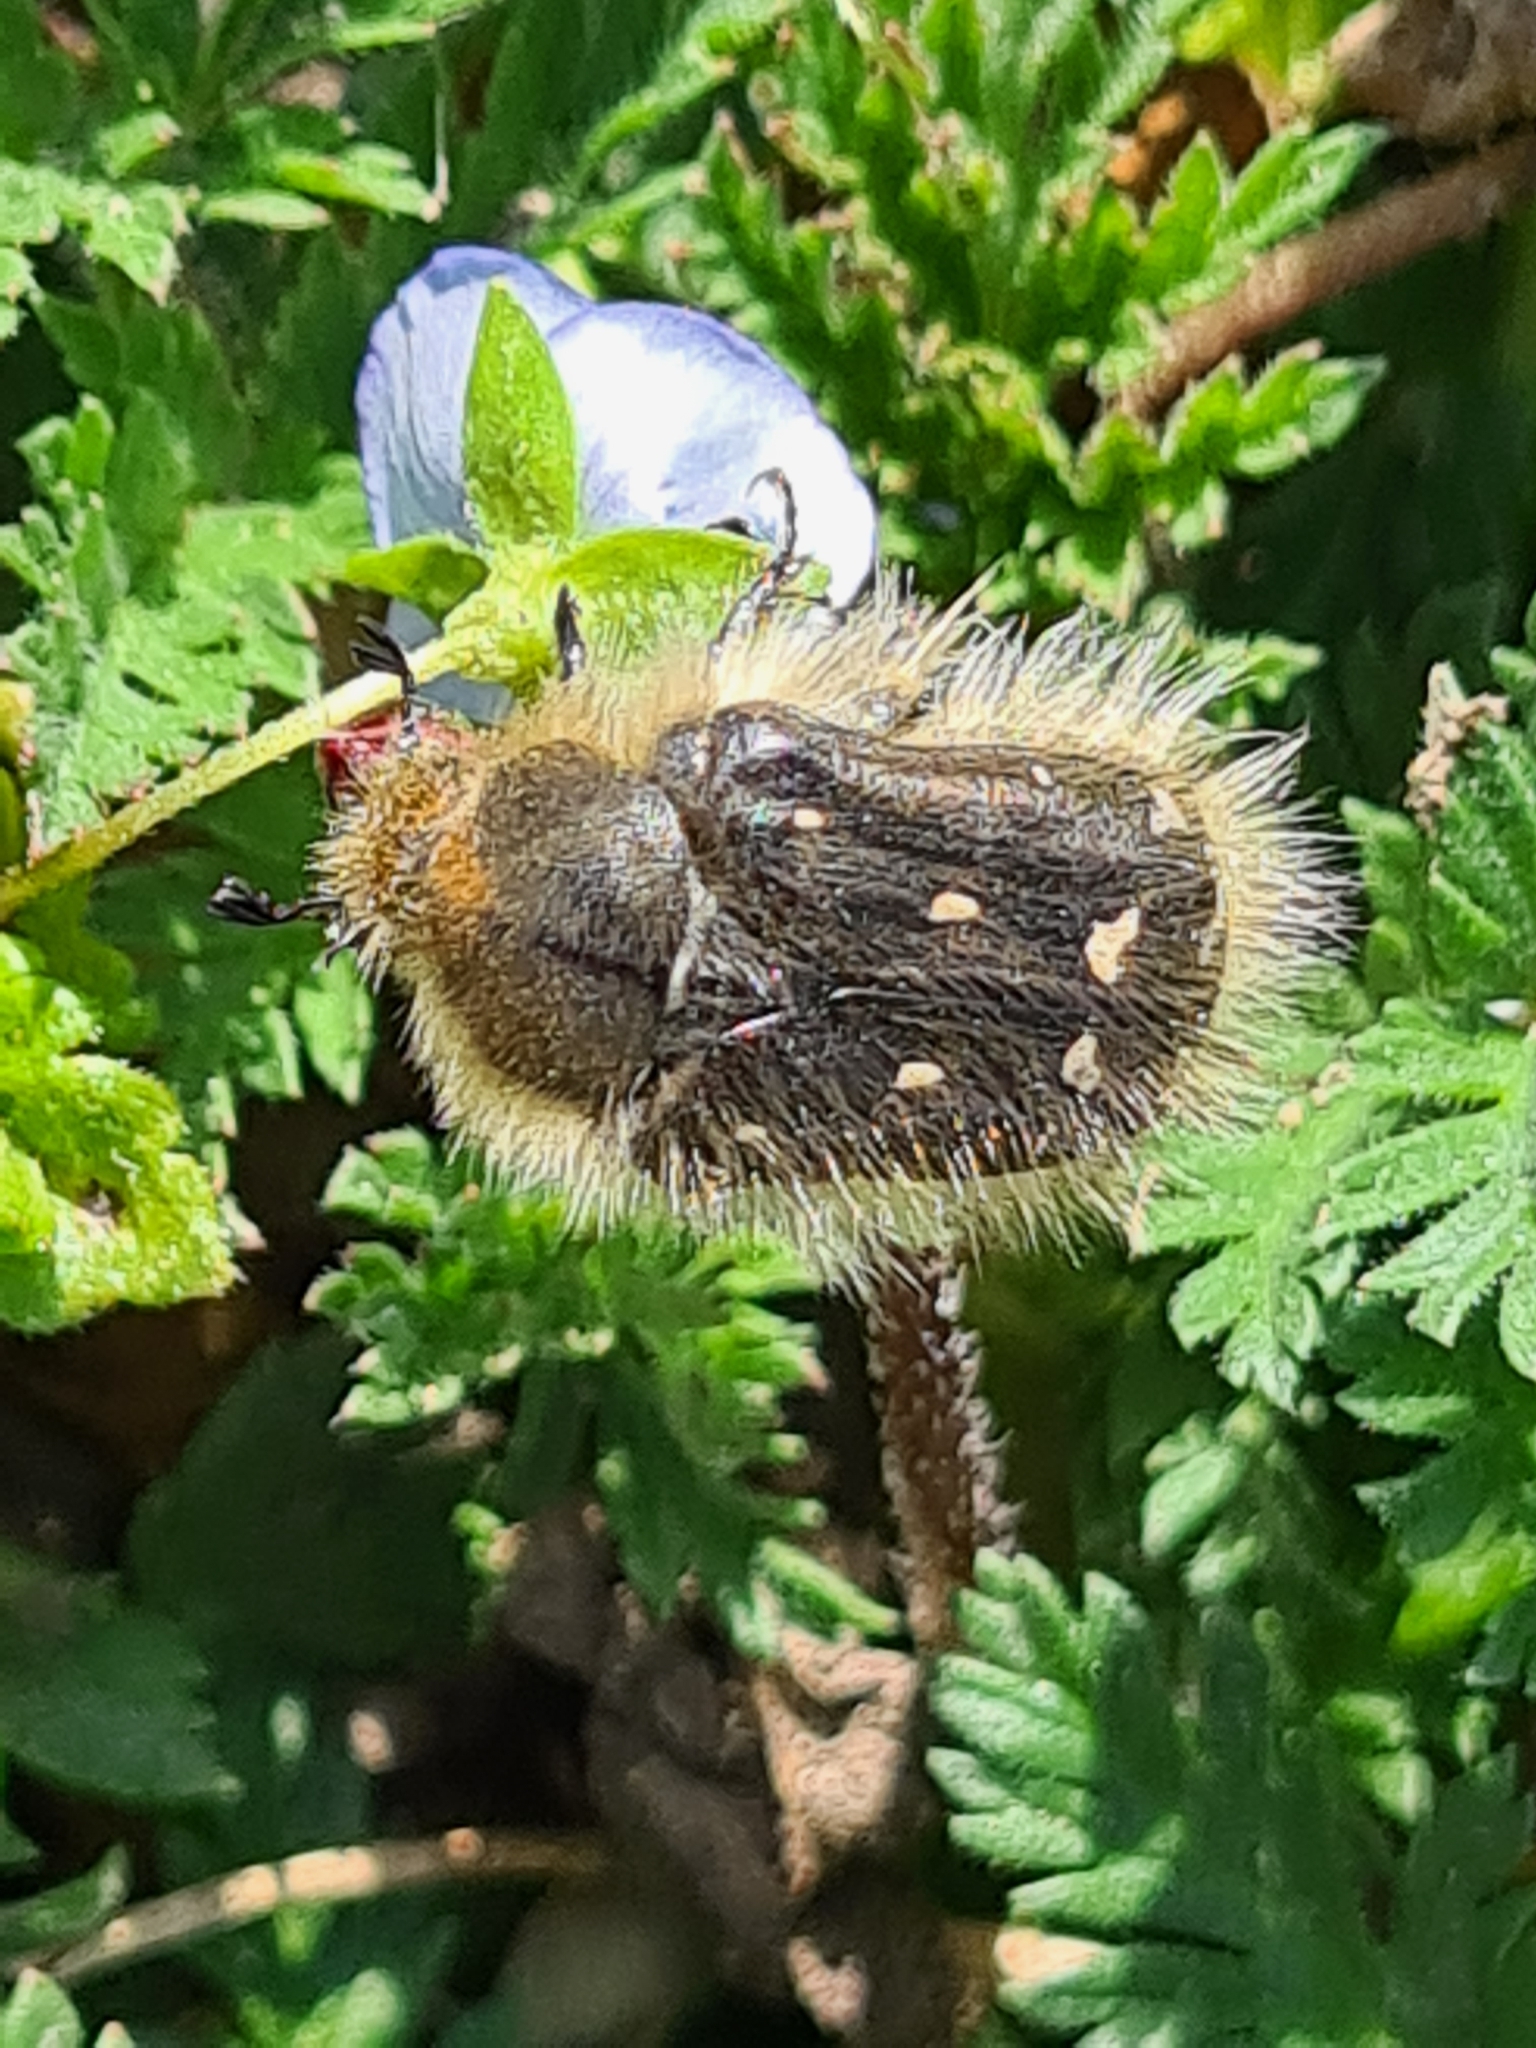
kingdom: Animalia
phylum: Arthropoda
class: Insecta
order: Coleoptera
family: Scarabaeidae
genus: Tropinota
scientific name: Tropinota hirta
